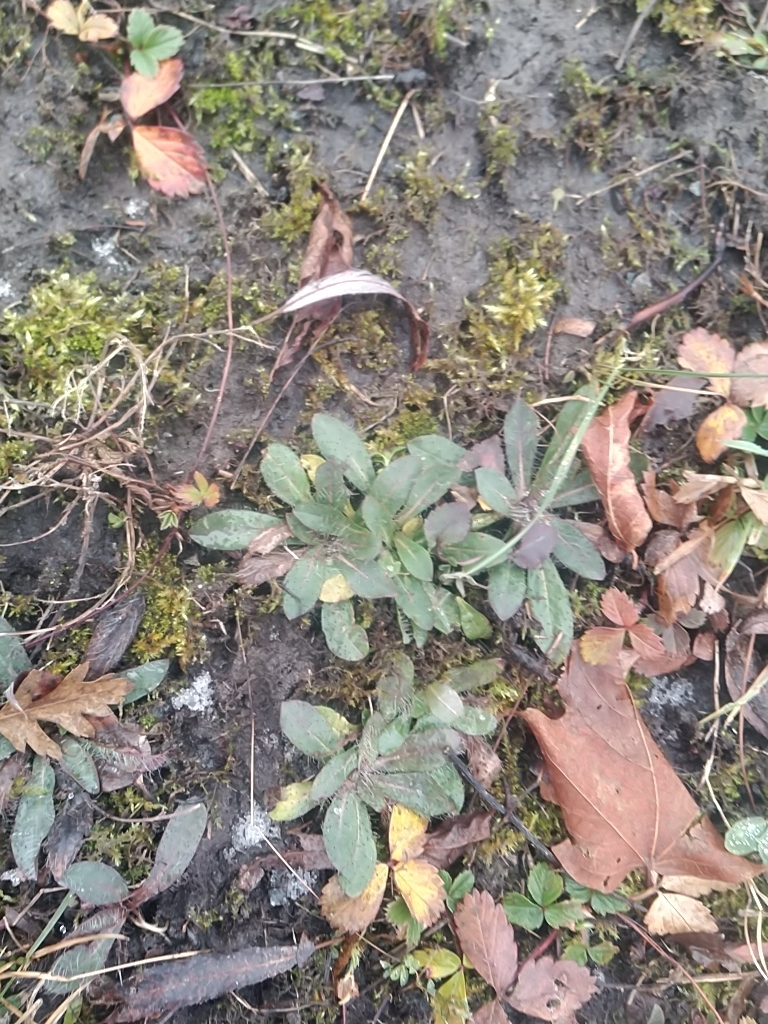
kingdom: Plantae
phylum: Tracheophyta
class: Magnoliopsida
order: Asterales
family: Asteraceae
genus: Pilosella
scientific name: Pilosella officinarum
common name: Mouse-ear hawkweed
